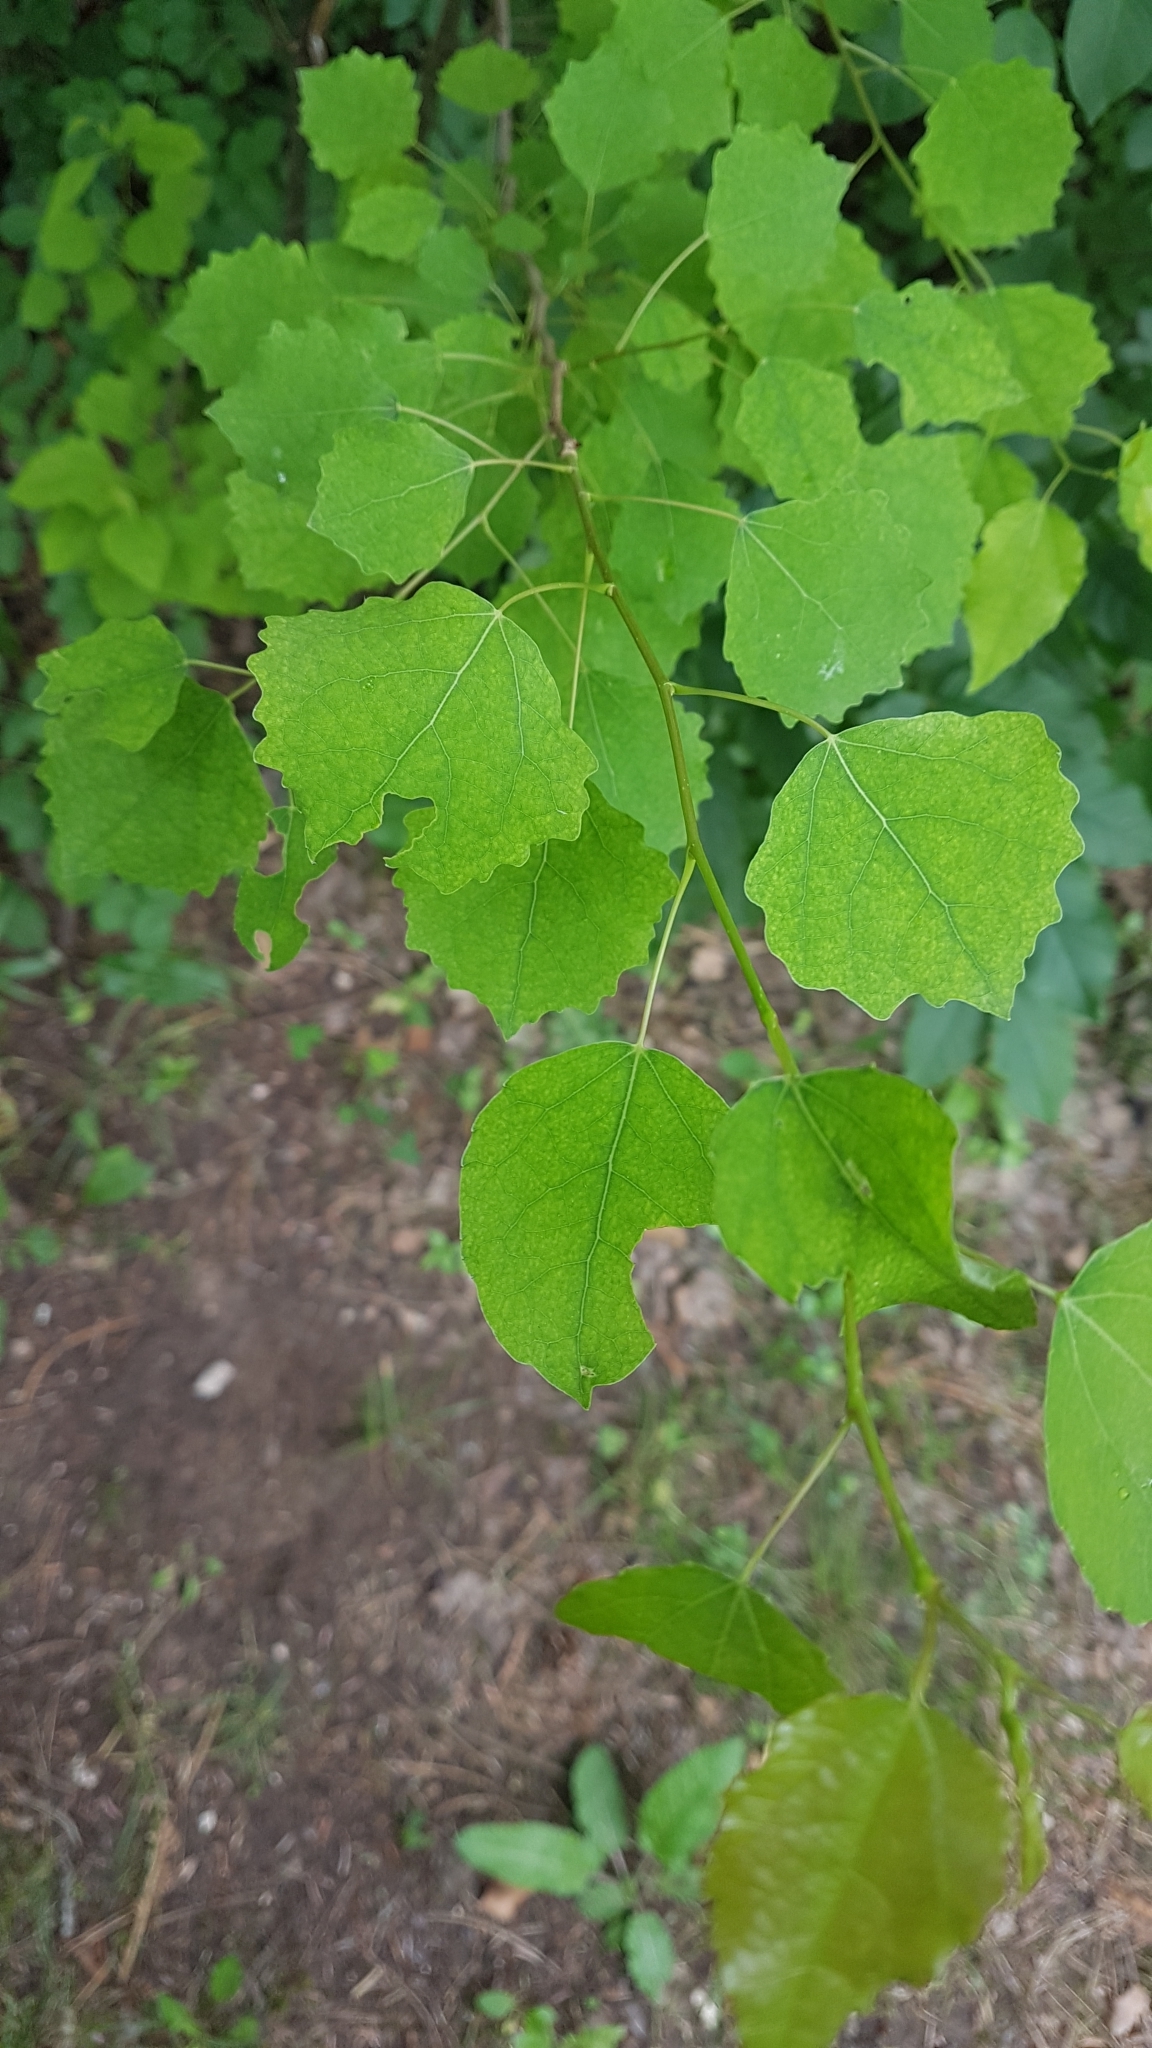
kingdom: Plantae
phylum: Tracheophyta
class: Magnoliopsida
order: Malpighiales
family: Salicaceae
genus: Populus
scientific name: Populus tremula
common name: European aspen
